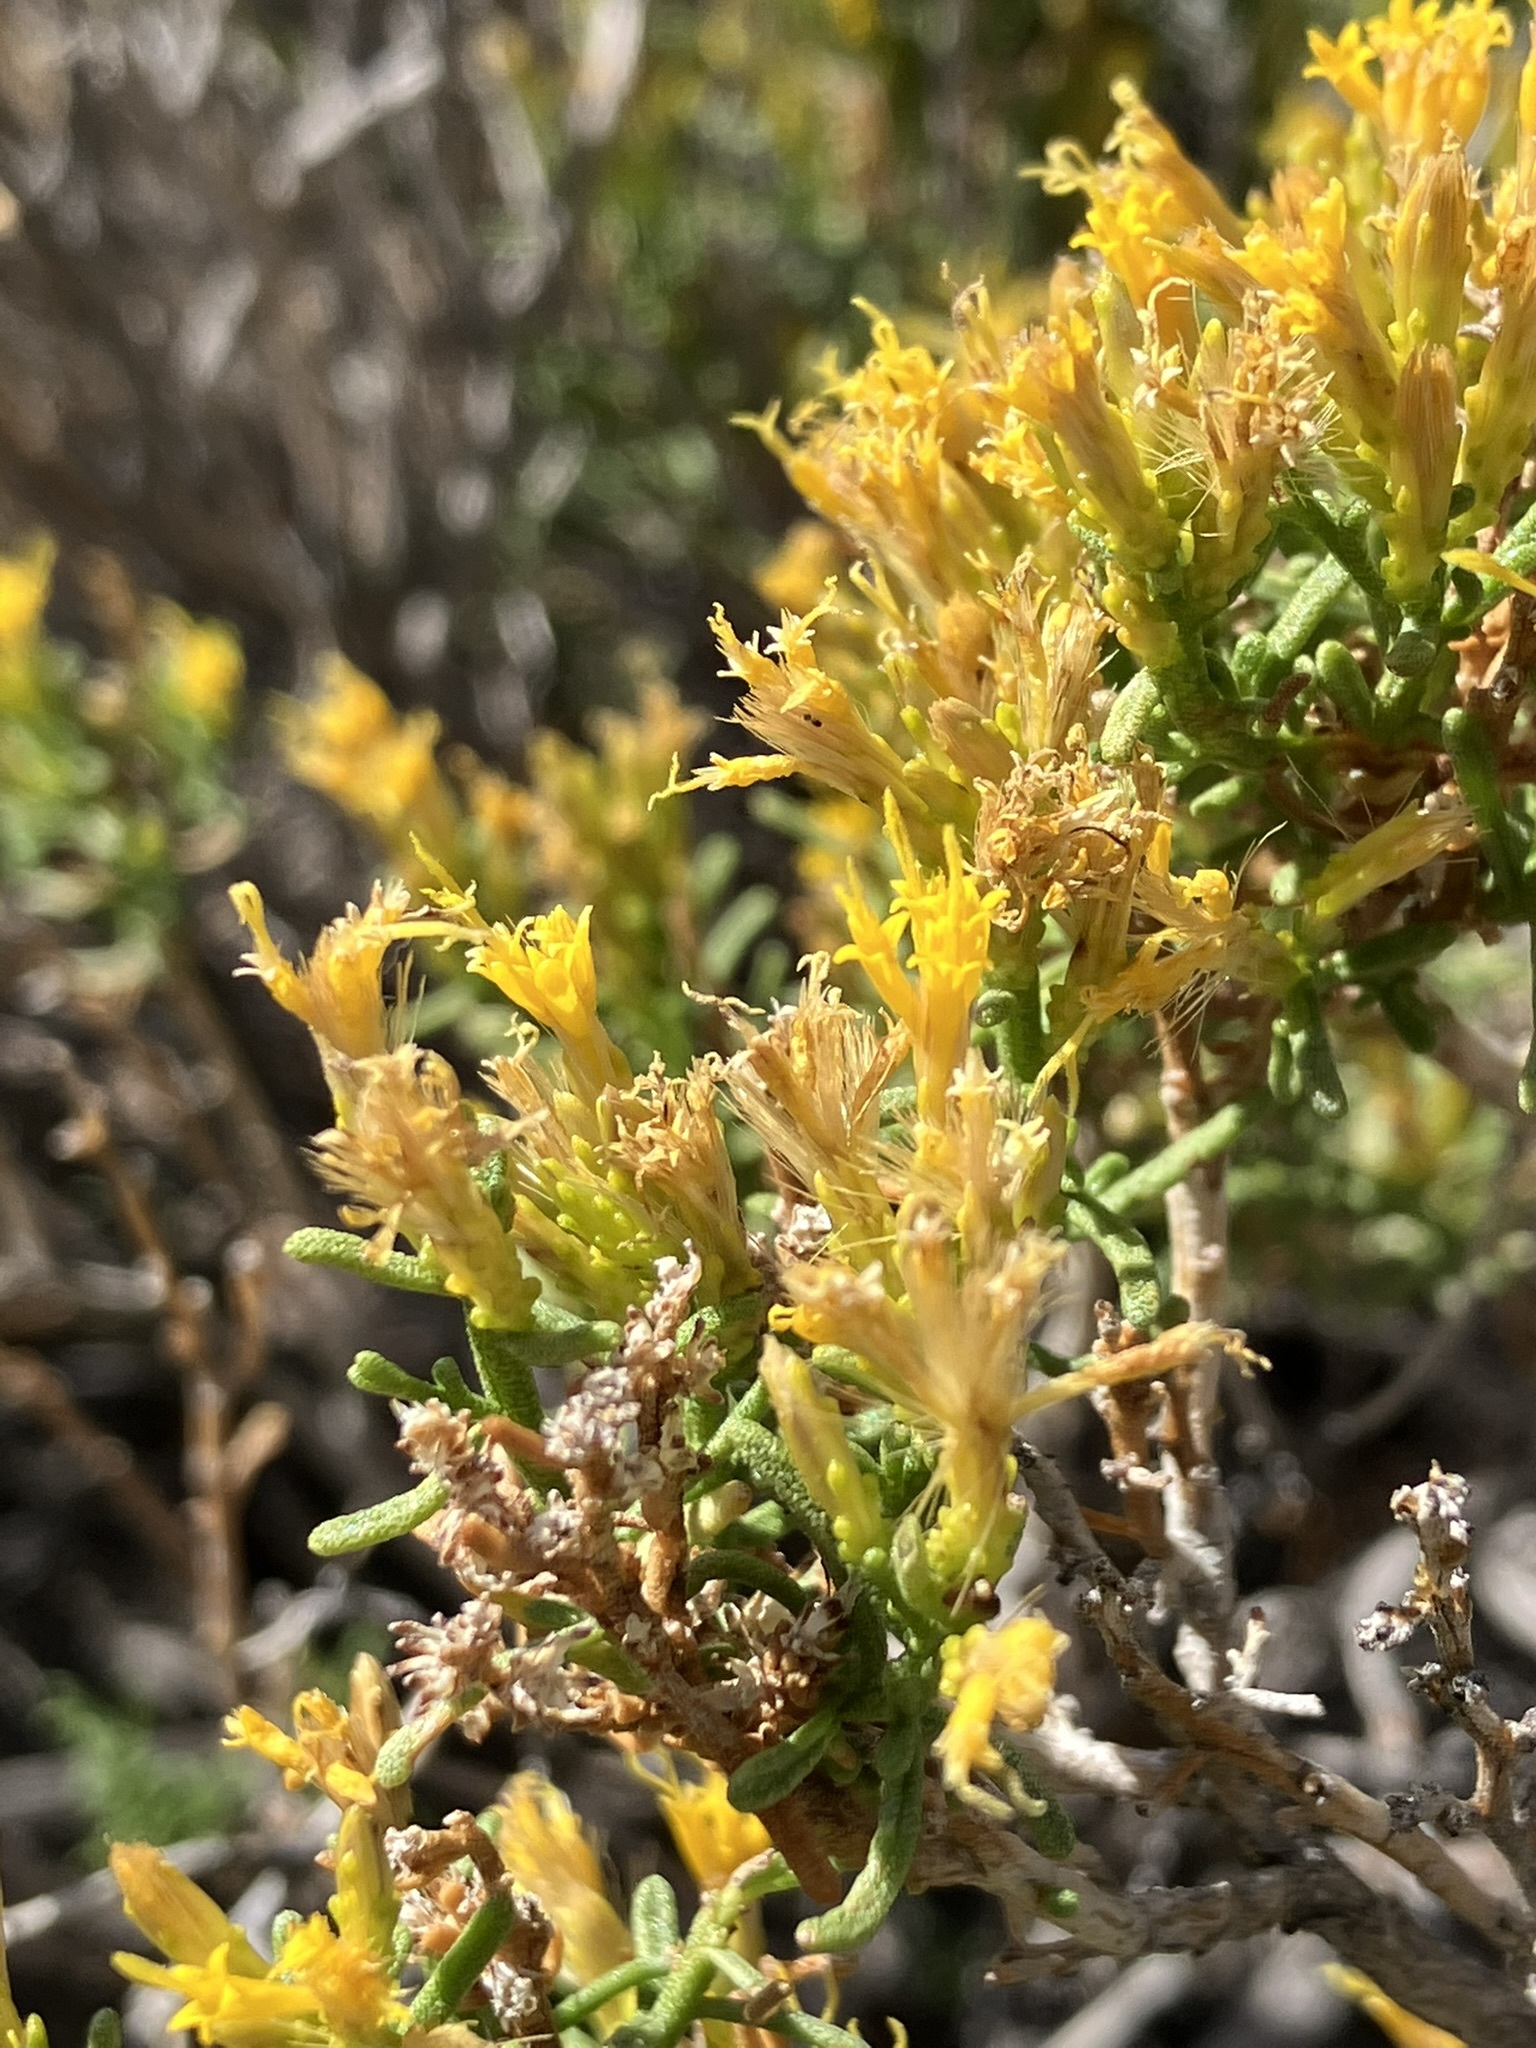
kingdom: Plantae
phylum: Tracheophyta
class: Magnoliopsida
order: Asterales
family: Asteraceae
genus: Ericameria
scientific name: Ericameria teretifolia
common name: Round-leaf rabbitbrush
